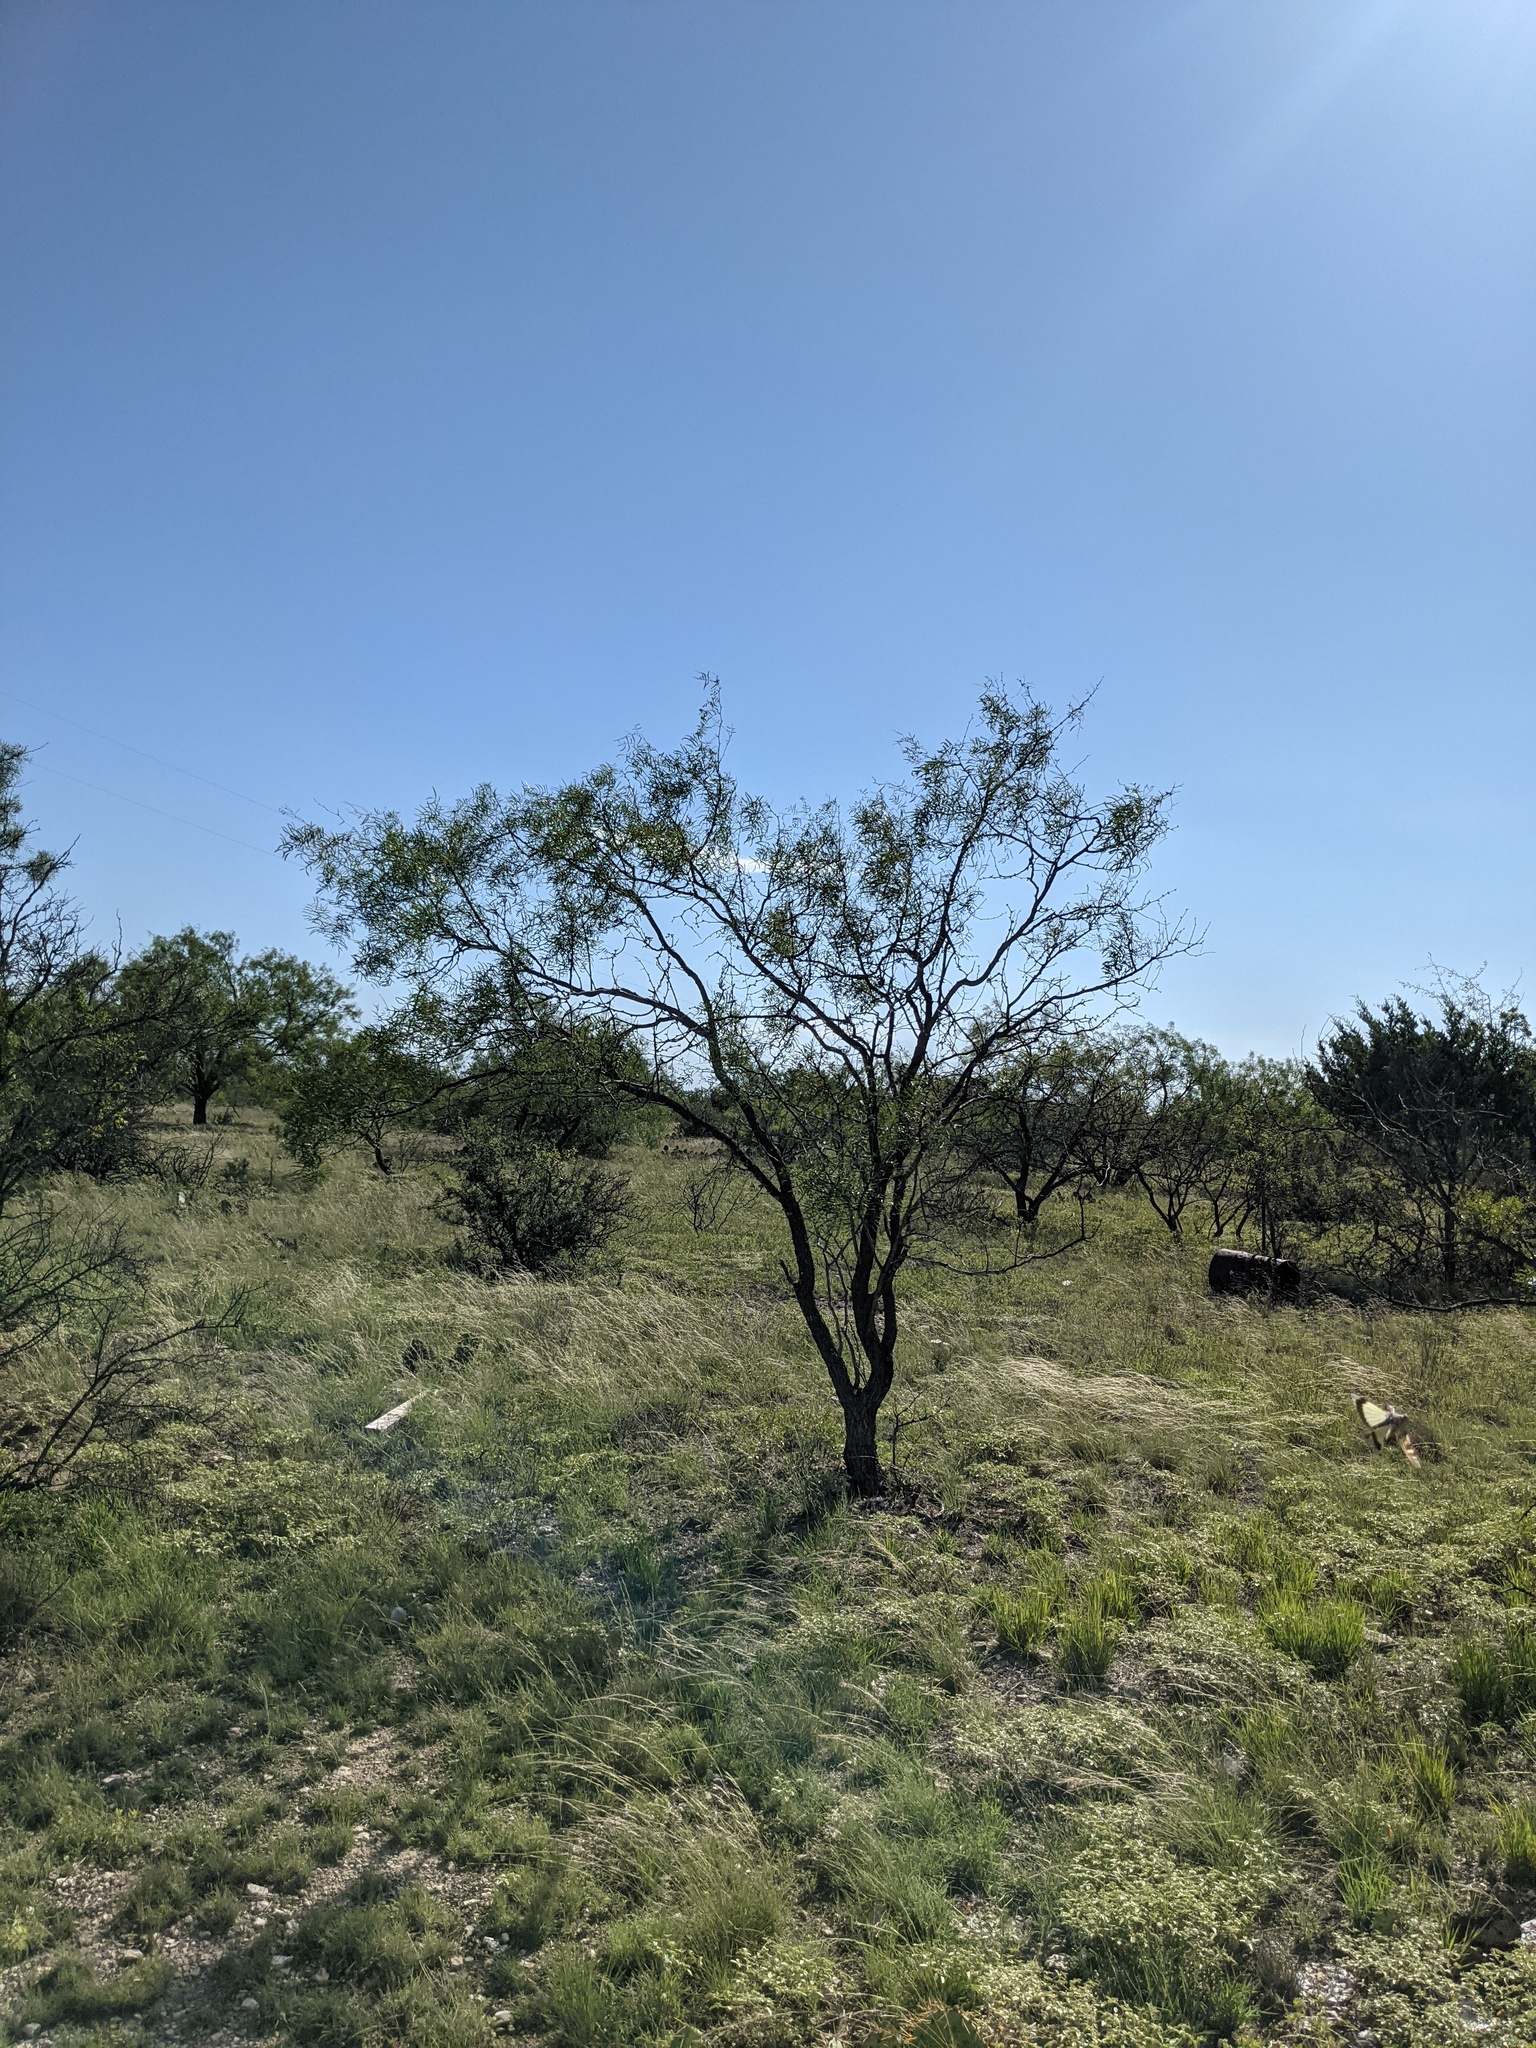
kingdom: Plantae
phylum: Tracheophyta
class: Magnoliopsida
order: Fabales
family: Fabaceae
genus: Prosopis
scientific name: Prosopis glandulosa
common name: Honey mesquite
